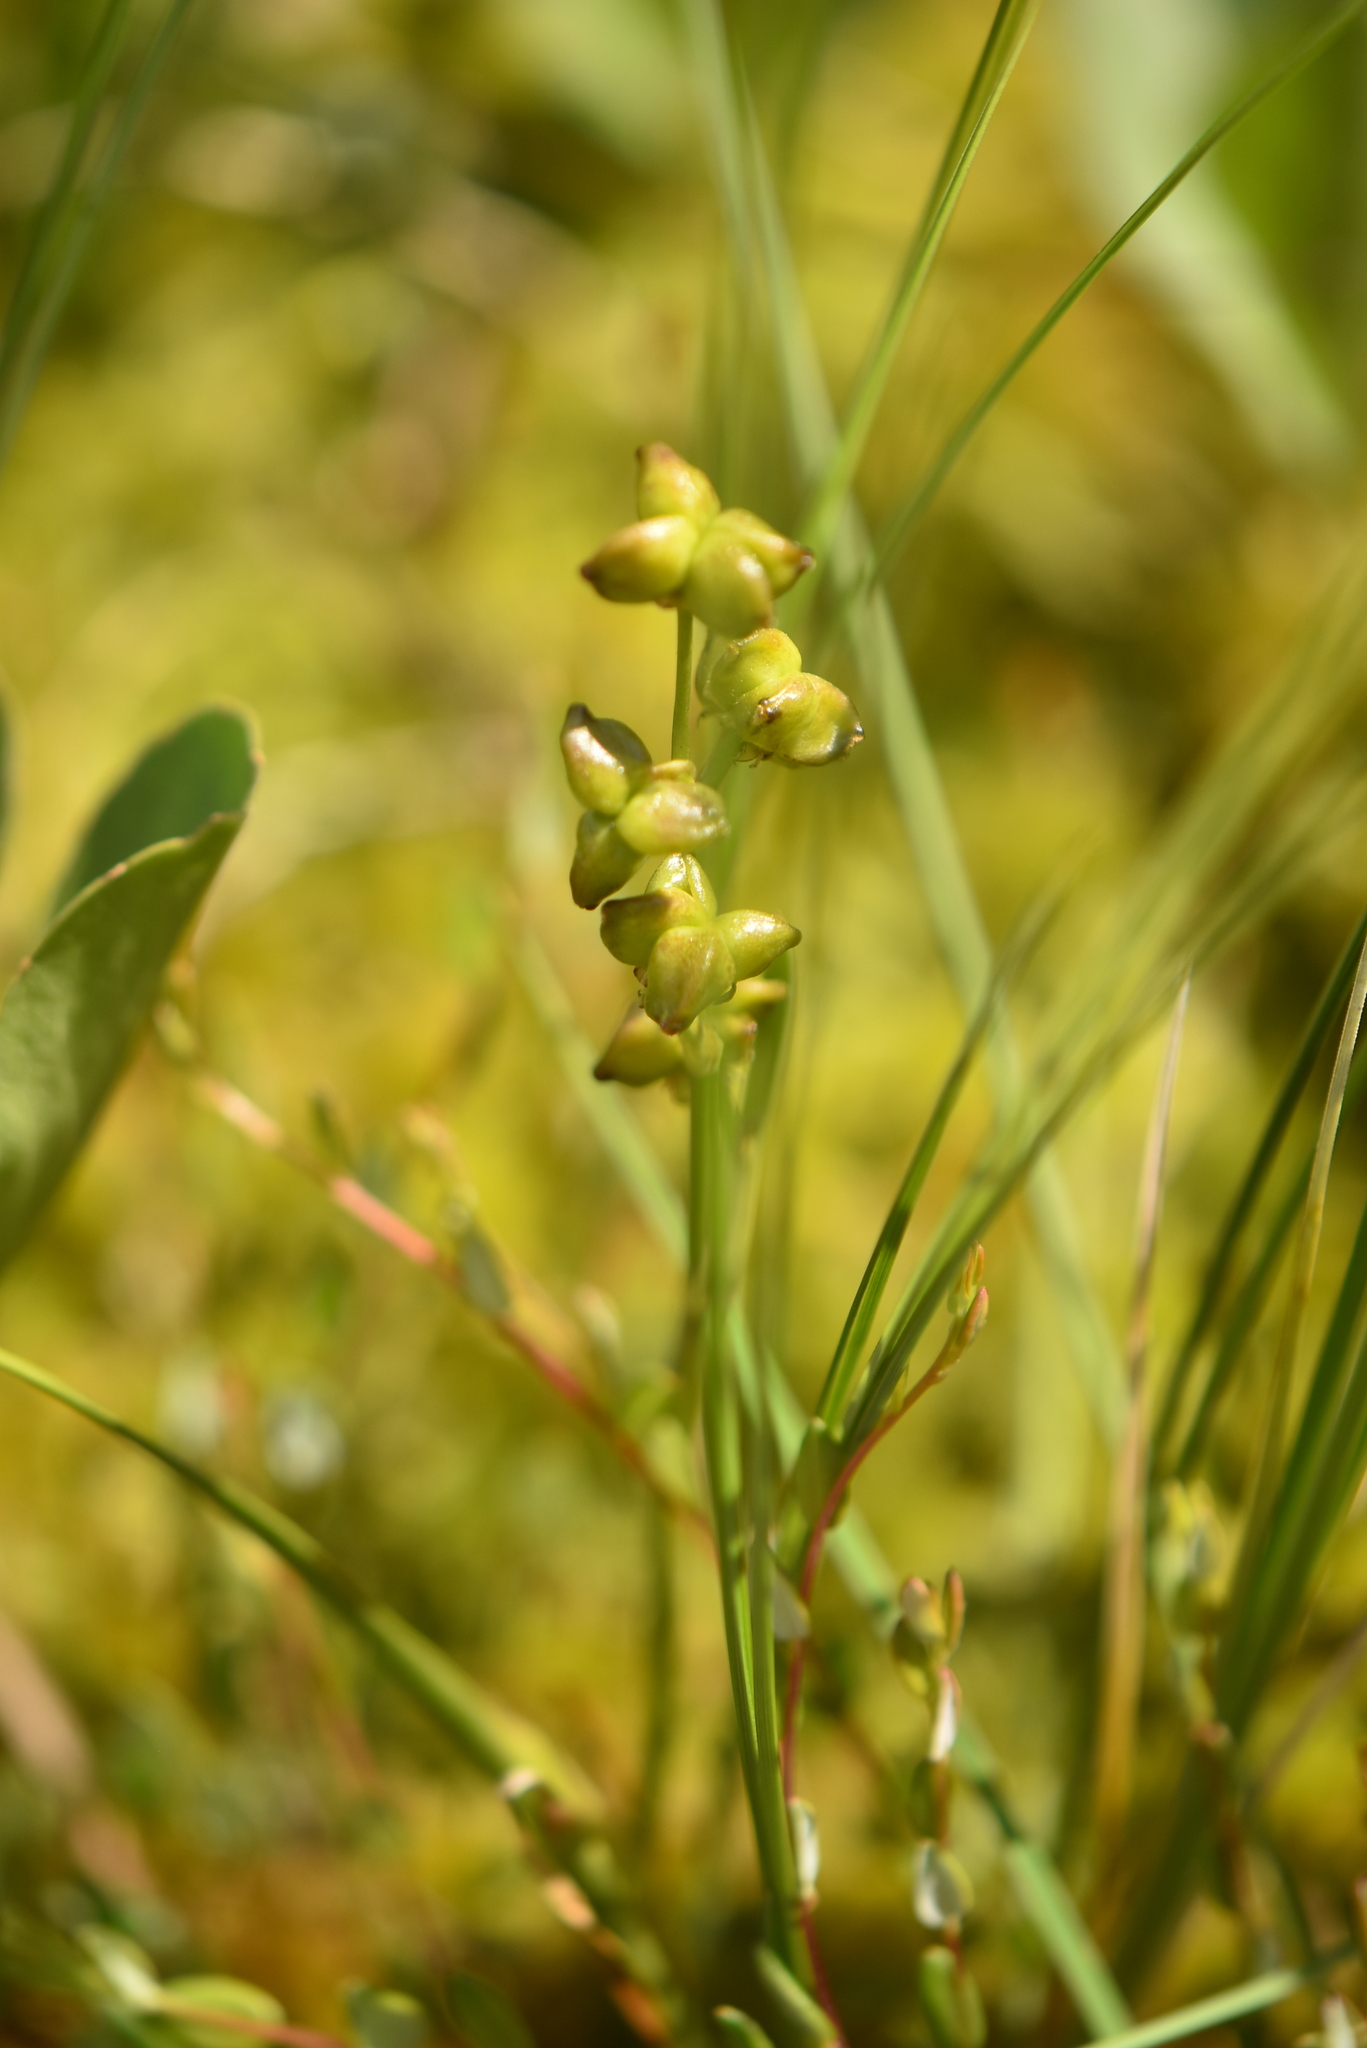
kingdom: Plantae
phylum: Tracheophyta
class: Liliopsida
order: Alismatales
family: Scheuchzeriaceae
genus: Scheuchzeria
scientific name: Scheuchzeria palustris
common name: Rannoch-rush
